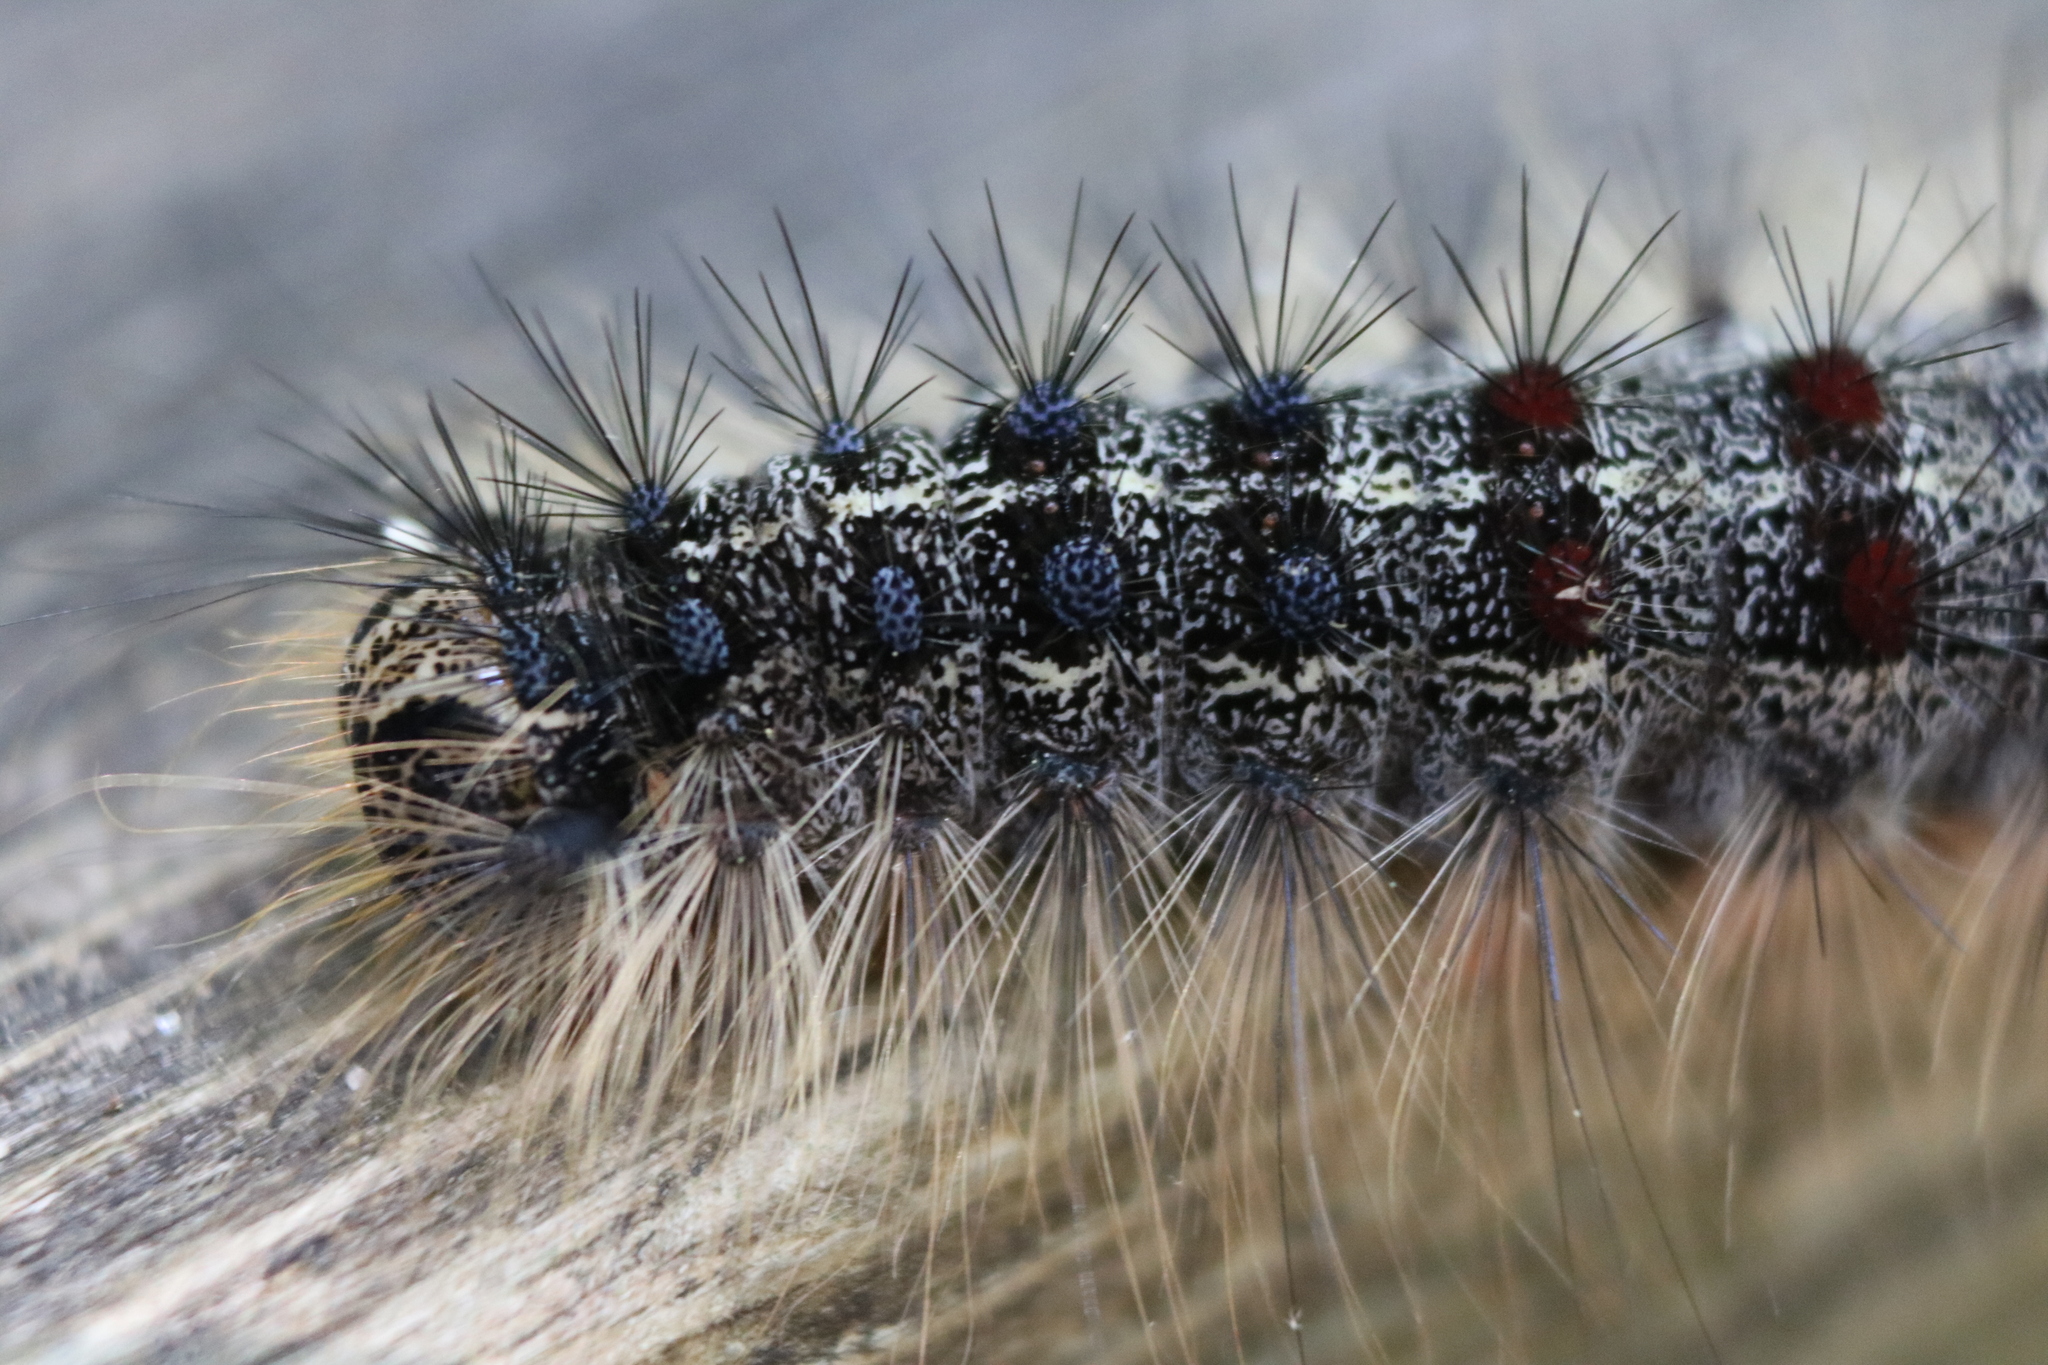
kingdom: Animalia
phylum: Arthropoda
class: Insecta
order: Lepidoptera
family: Erebidae
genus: Lymantria
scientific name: Lymantria dispar
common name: Gypsy moth
